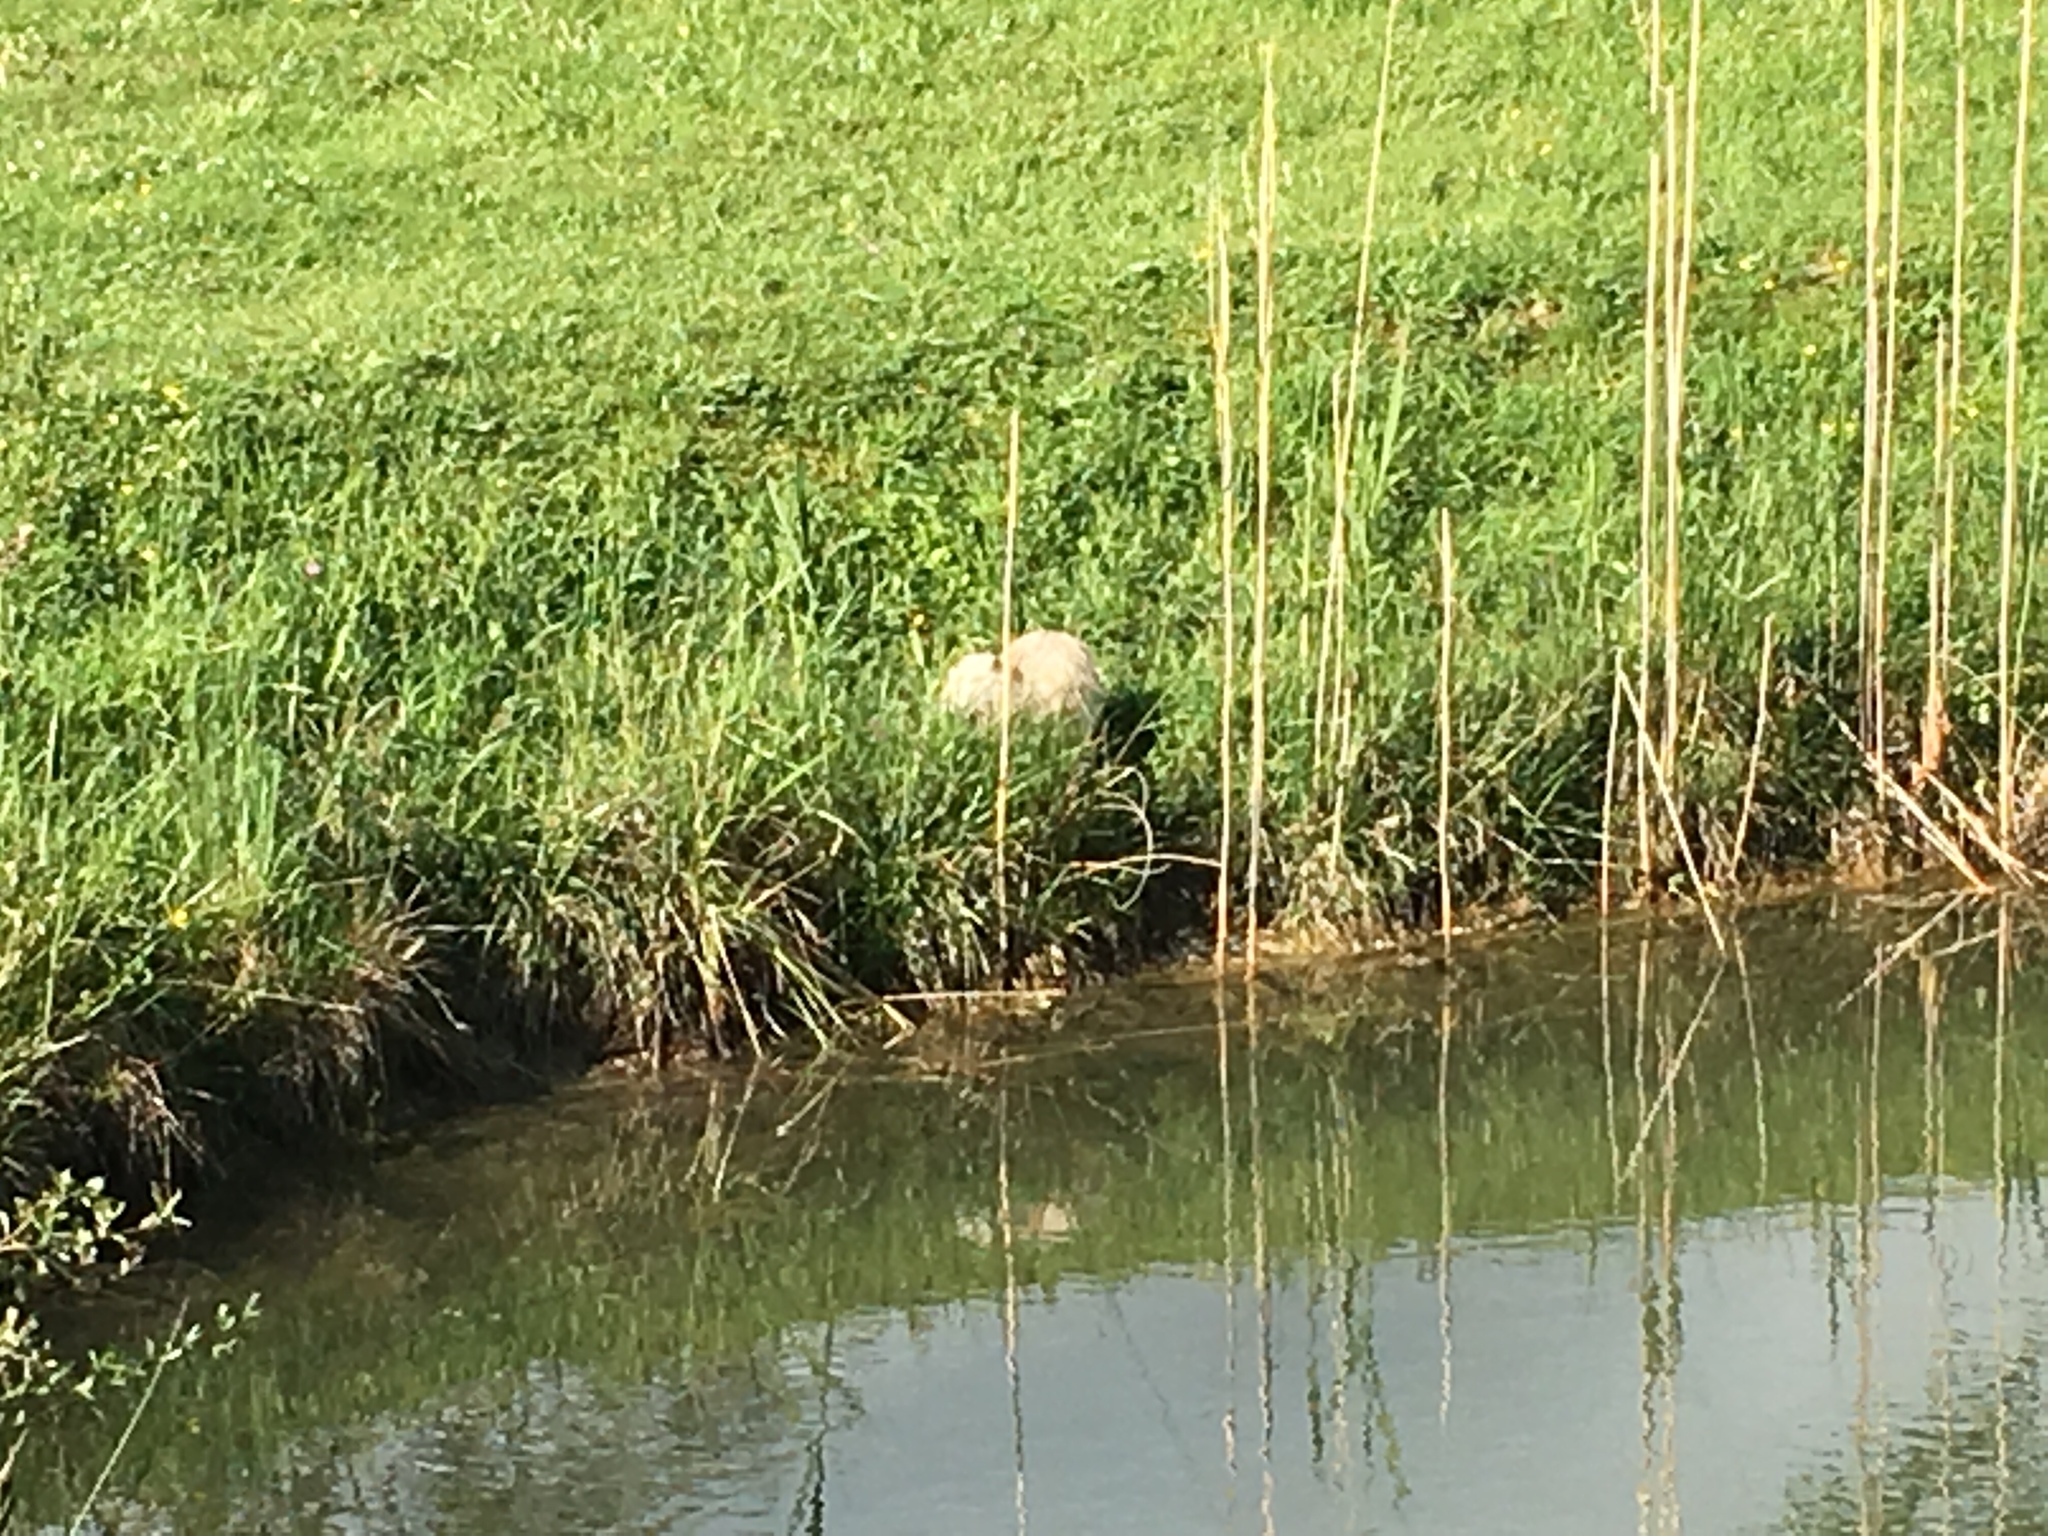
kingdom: Animalia
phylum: Chordata
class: Mammalia
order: Rodentia
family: Myocastoridae
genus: Myocastor
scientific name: Myocastor coypus
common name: Coypu
